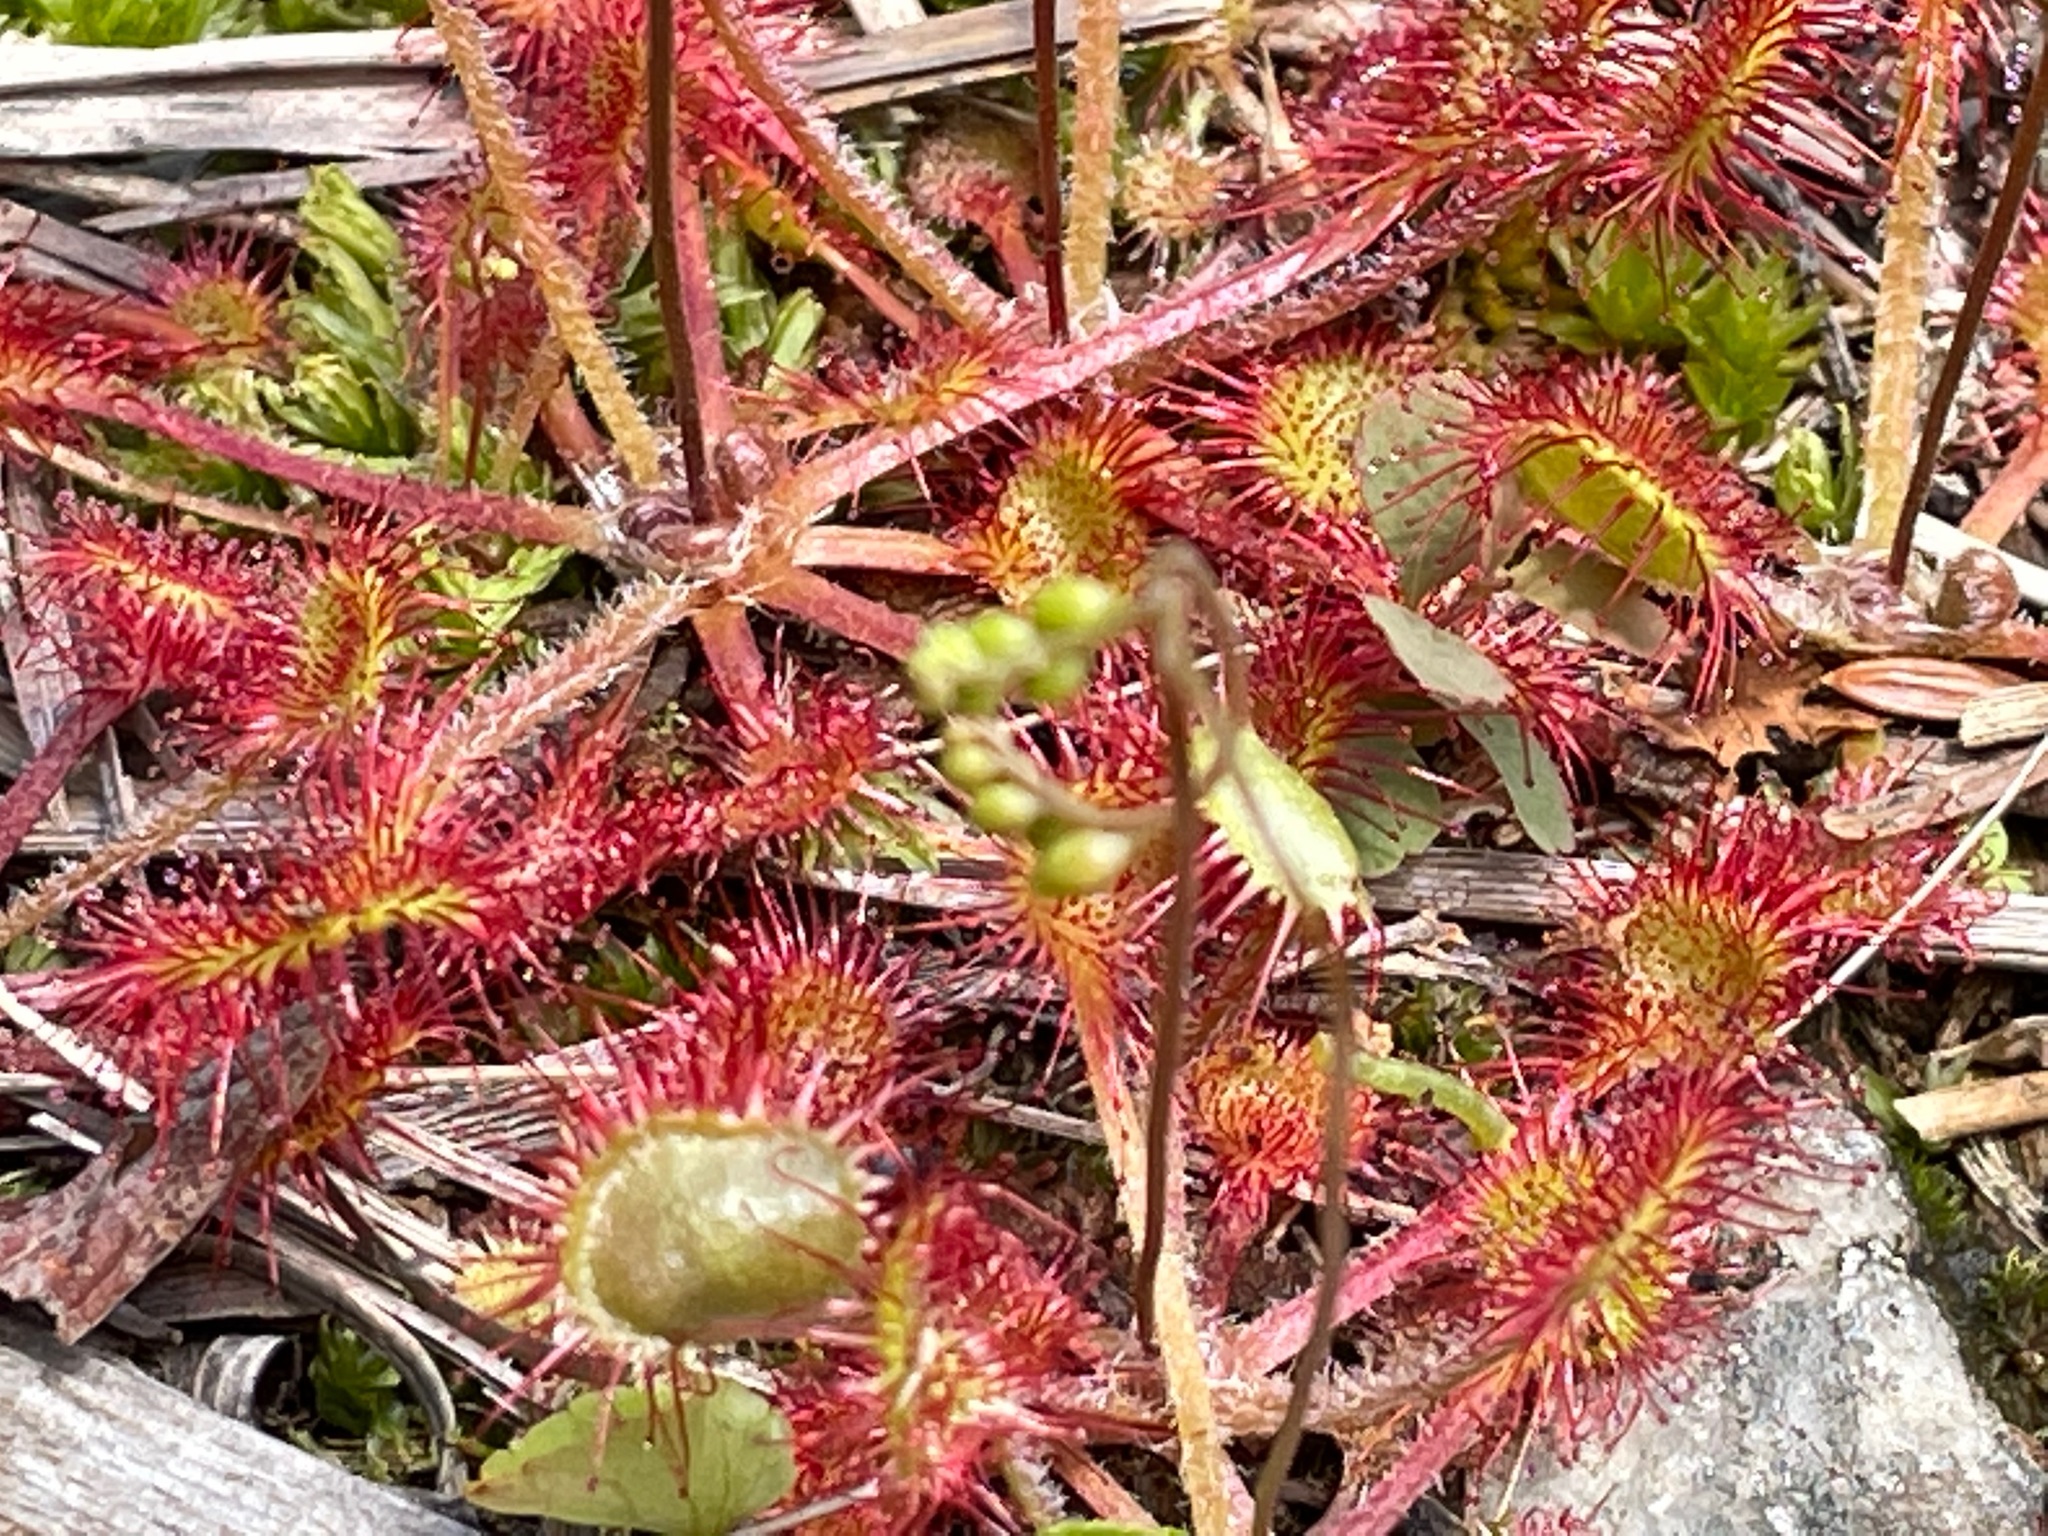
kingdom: Plantae
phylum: Tracheophyta
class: Magnoliopsida
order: Caryophyllales
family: Droseraceae
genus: Drosera
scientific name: Drosera rotundifolia
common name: Round-leaved sundew
